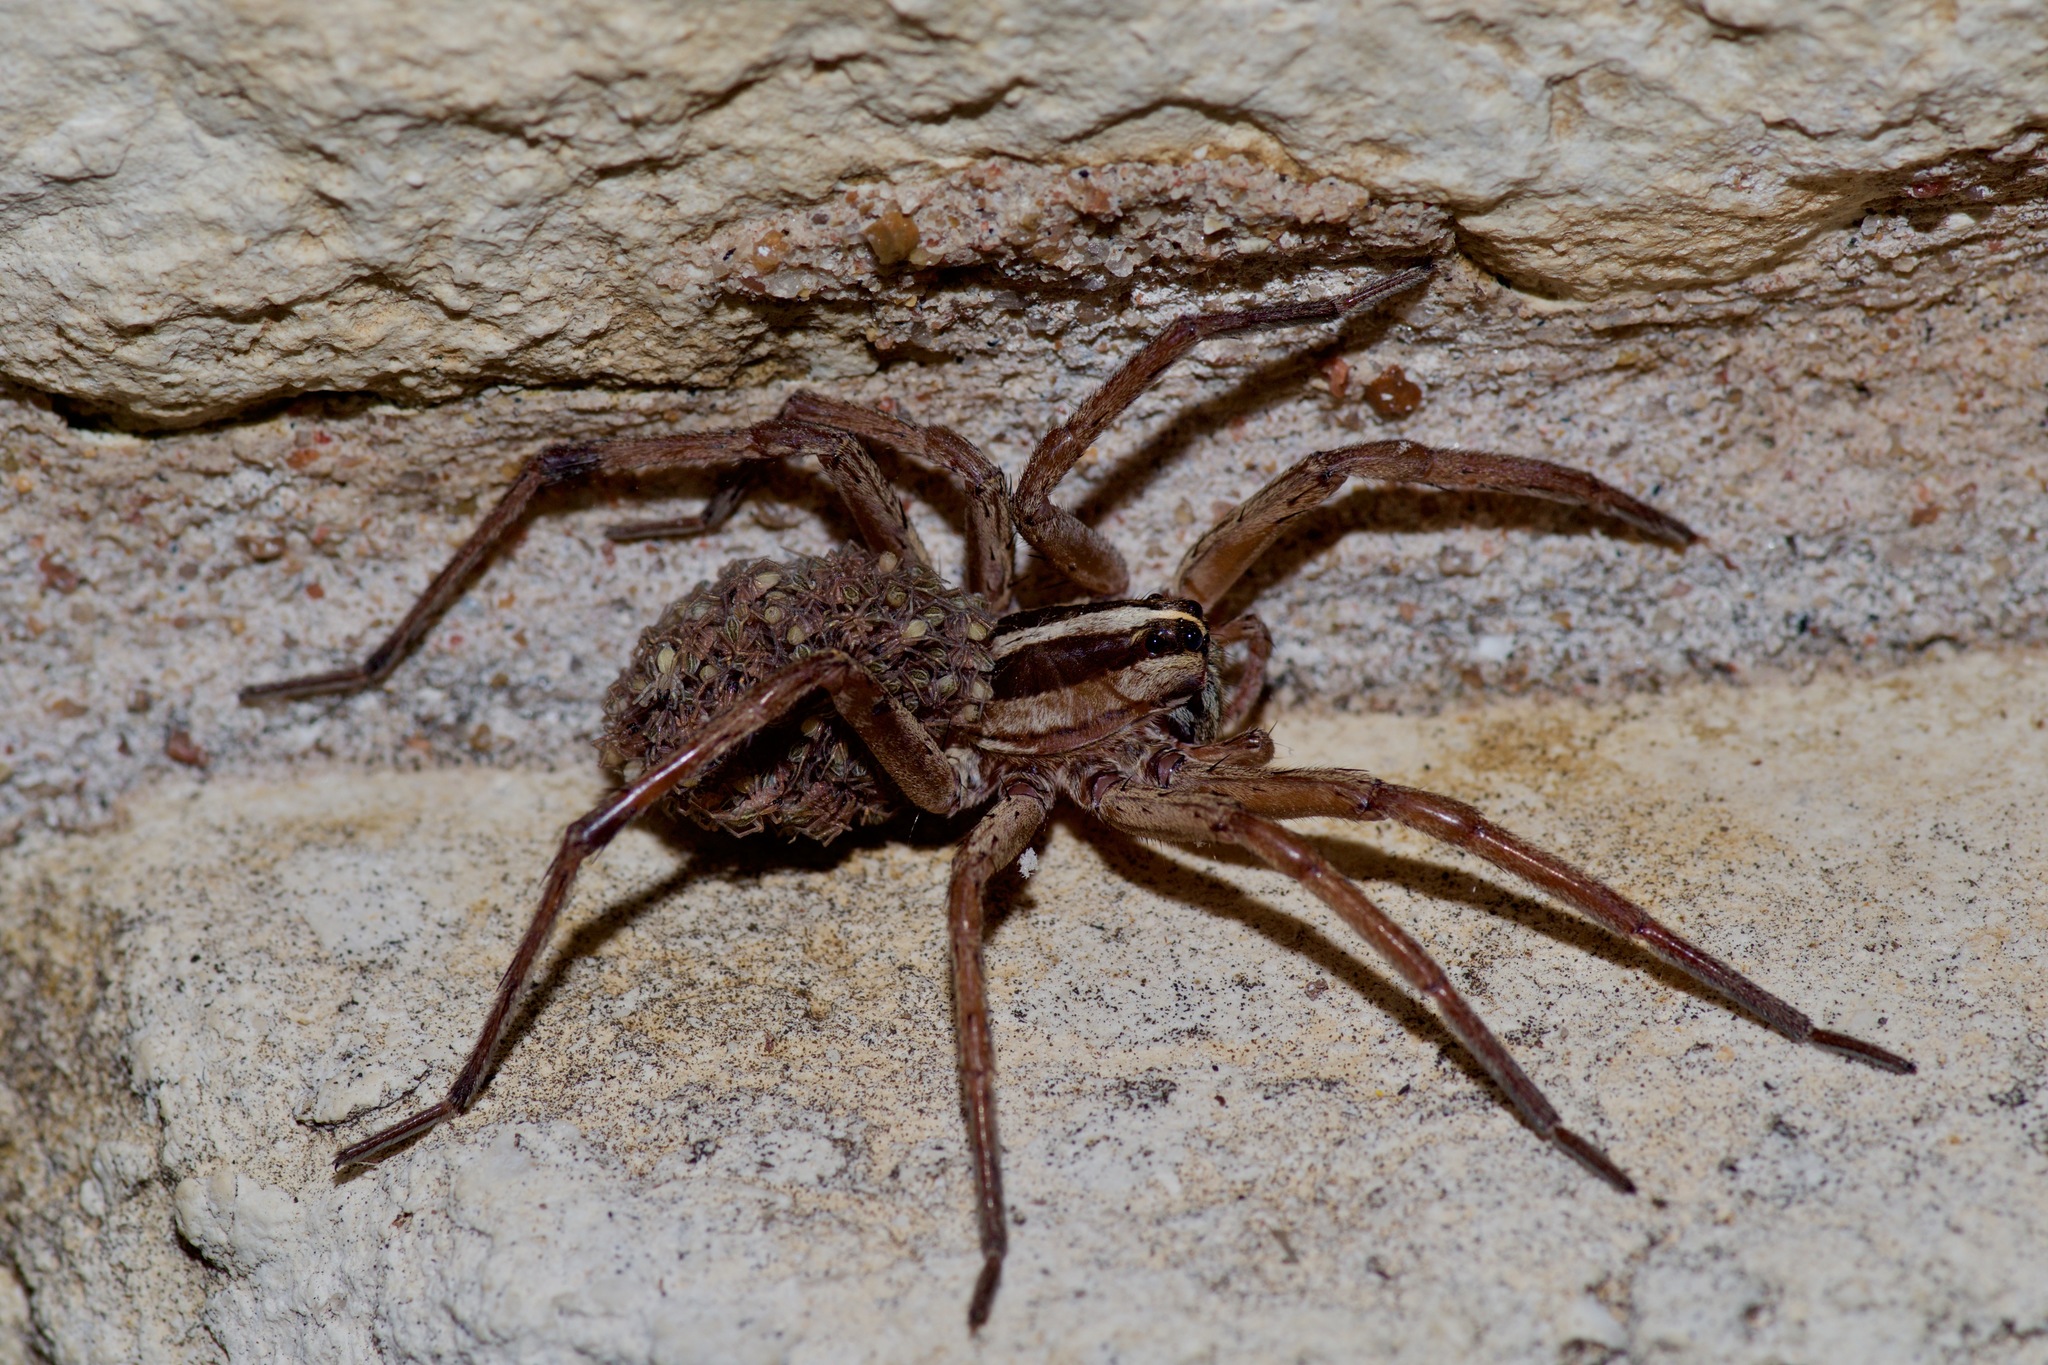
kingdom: Animalia
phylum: Arthropoda
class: Arachnida
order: Araneae
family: Lycosidae
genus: Rabidosa
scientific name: Rabidosa
